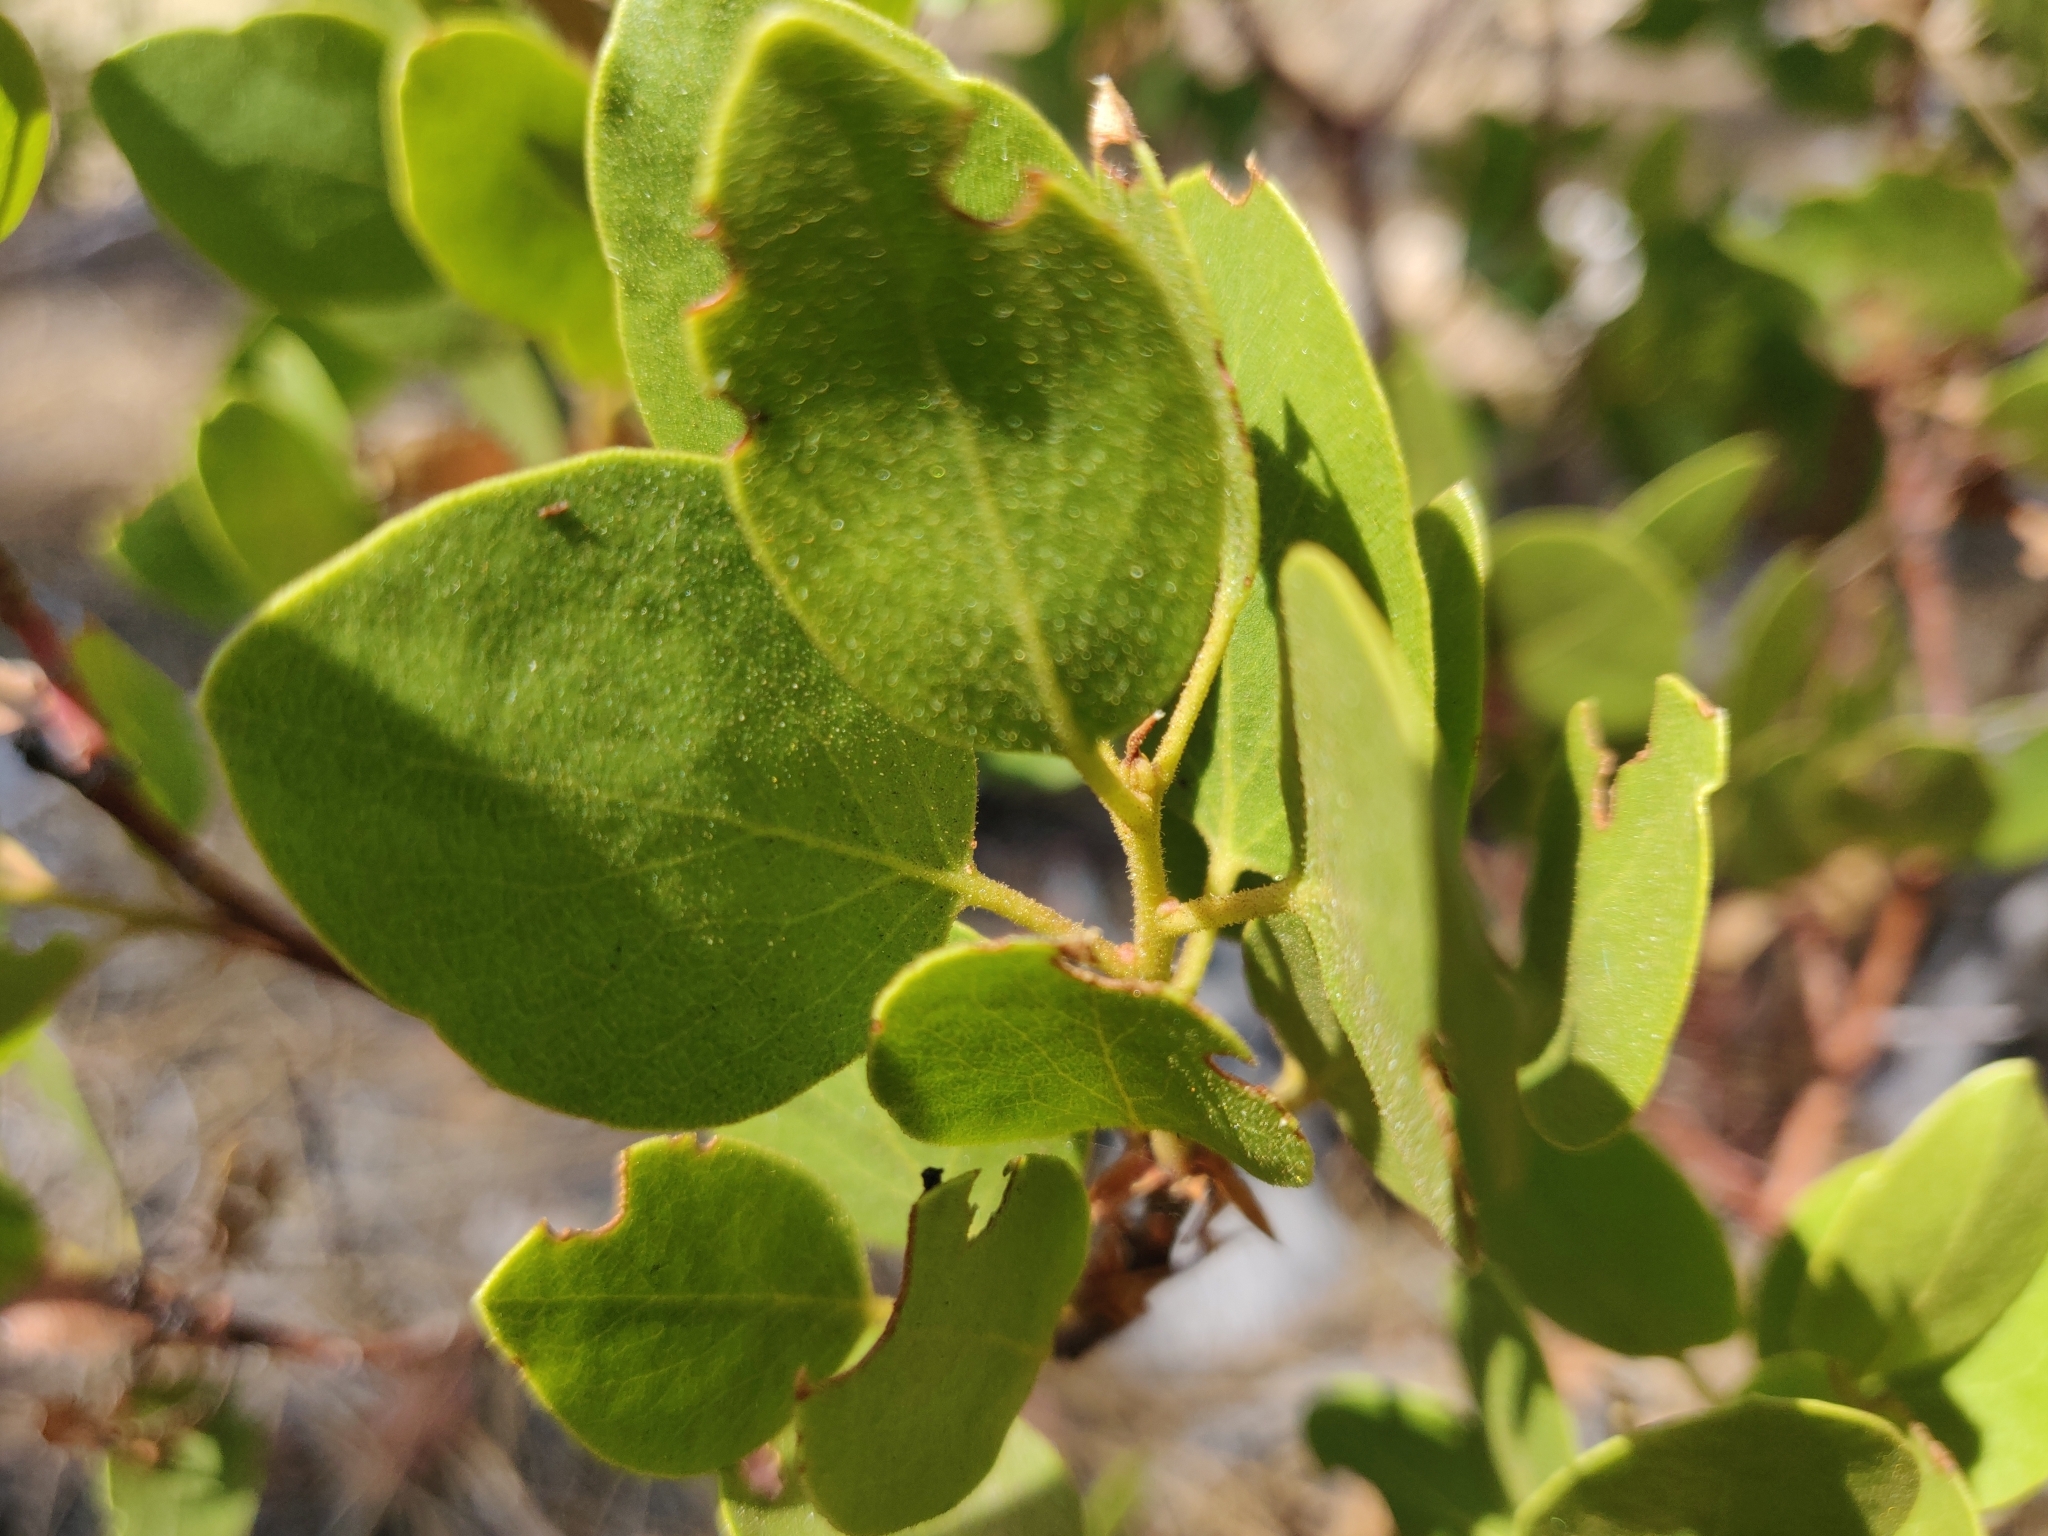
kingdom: Plantae
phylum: Tracheophyta
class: Magnoliopsida
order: Ericales
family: Ericaceae
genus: Arctostaphylos
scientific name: Arctostaphylos patula
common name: Green-leaf manzanita
